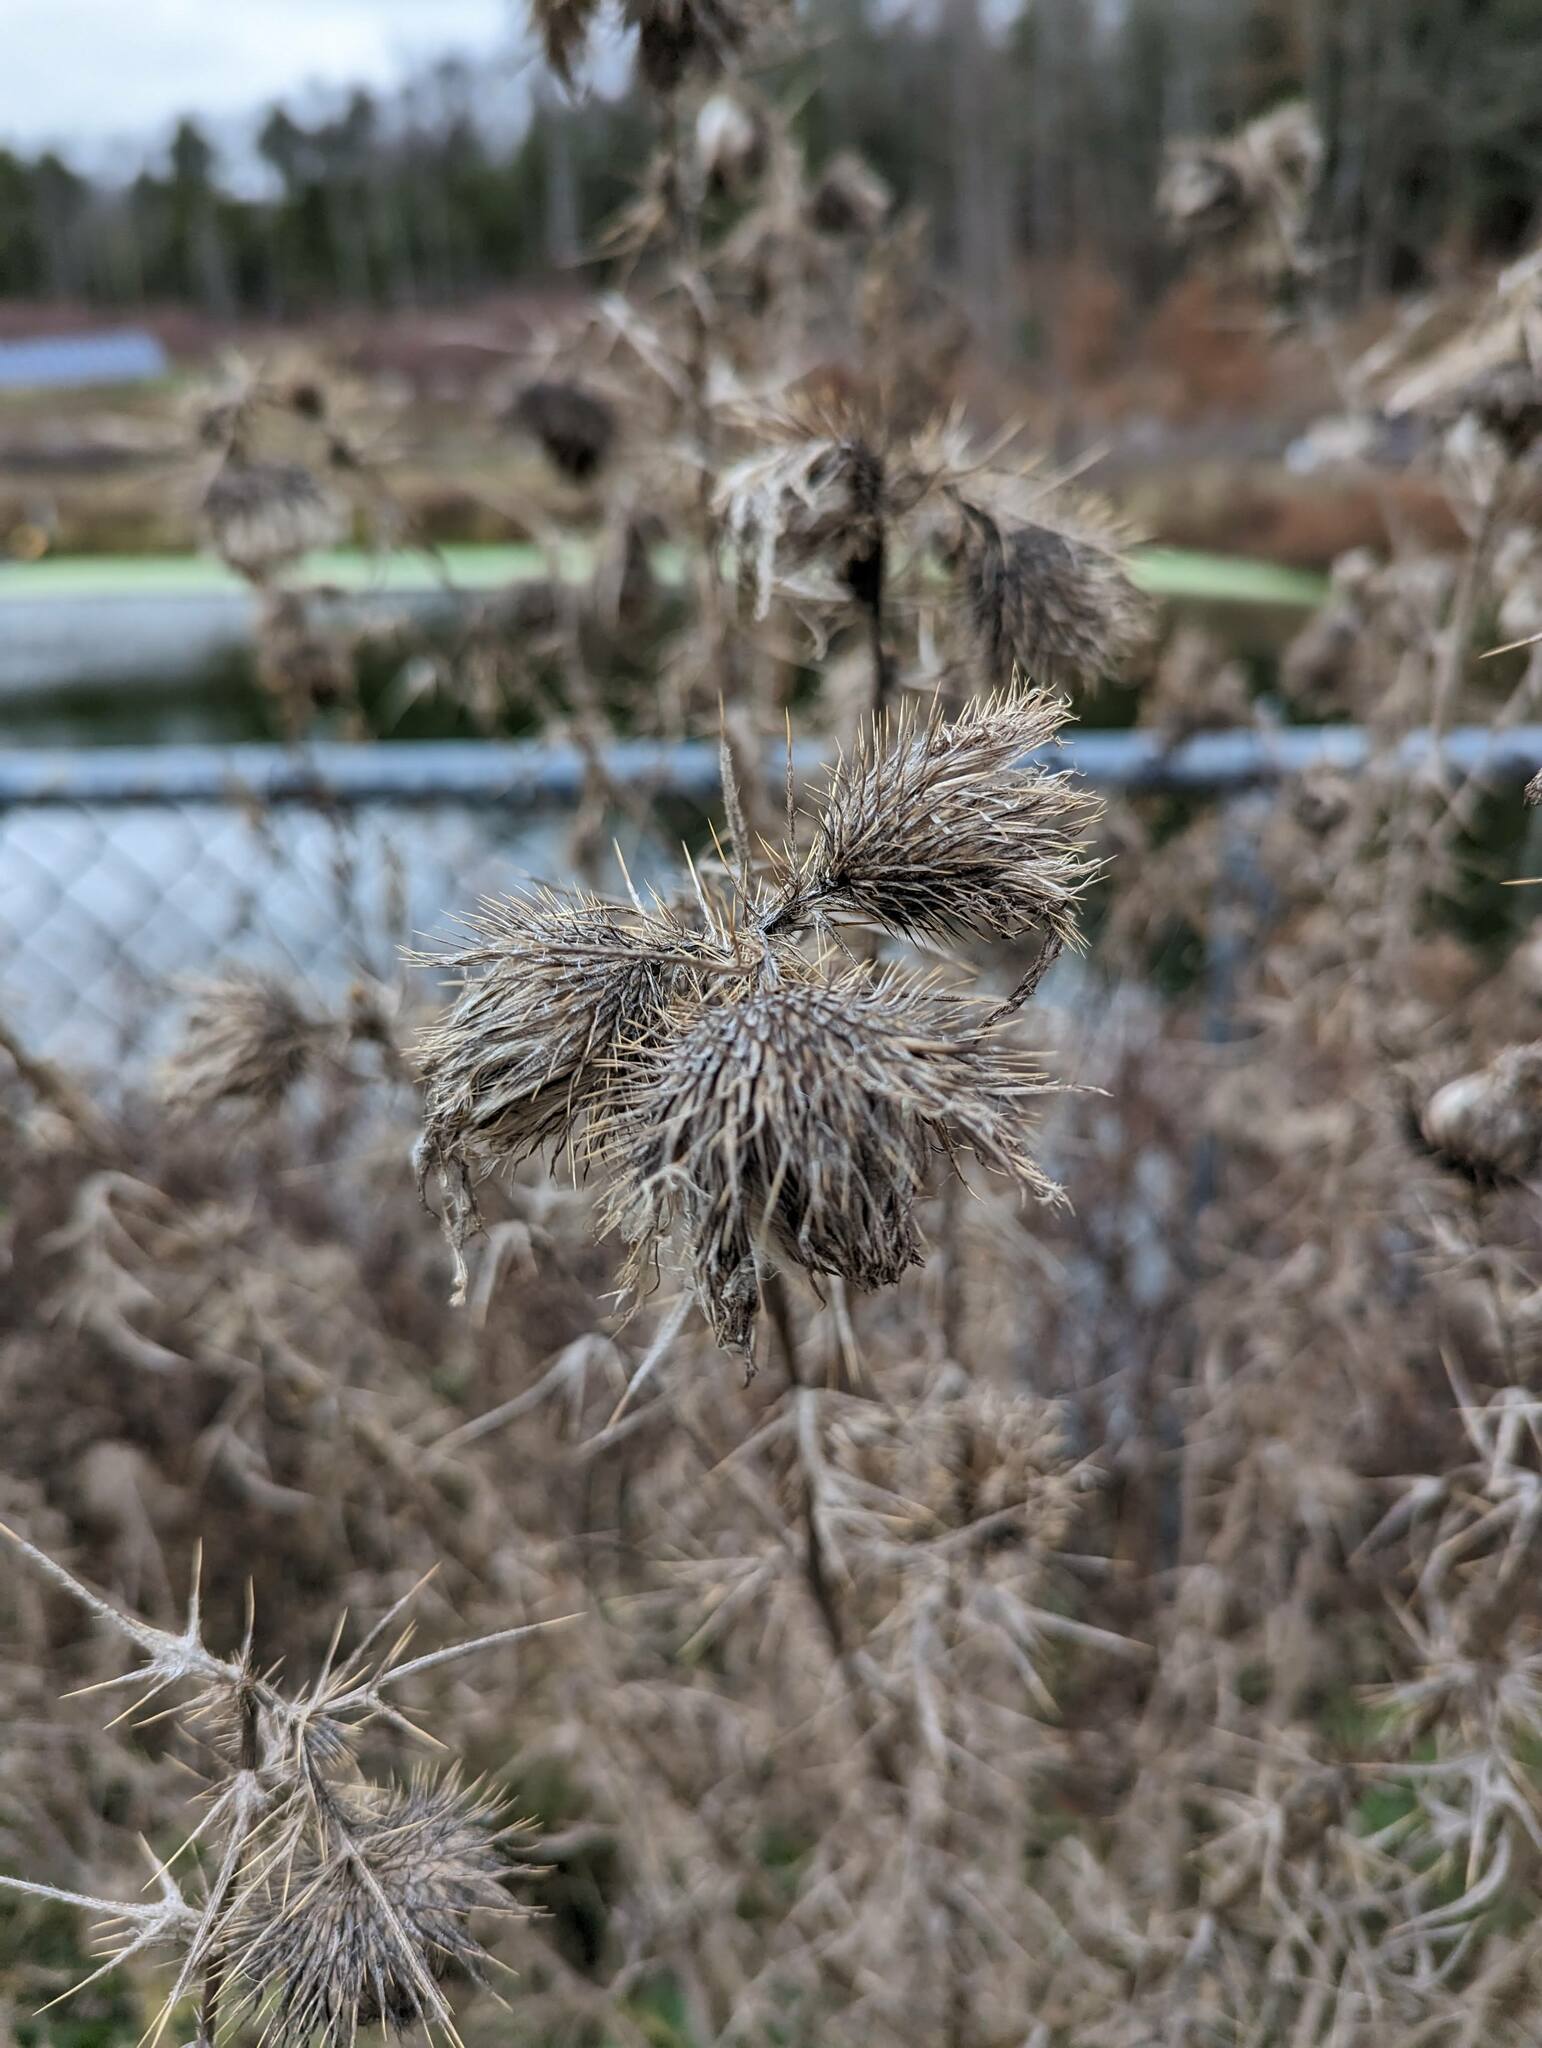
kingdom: Plantae
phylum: Tracheophyta
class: Magnoliopsida
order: Asterales
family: Asteraceae
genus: Cirsium
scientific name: Cirsium vulgare
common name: Bull thistle
